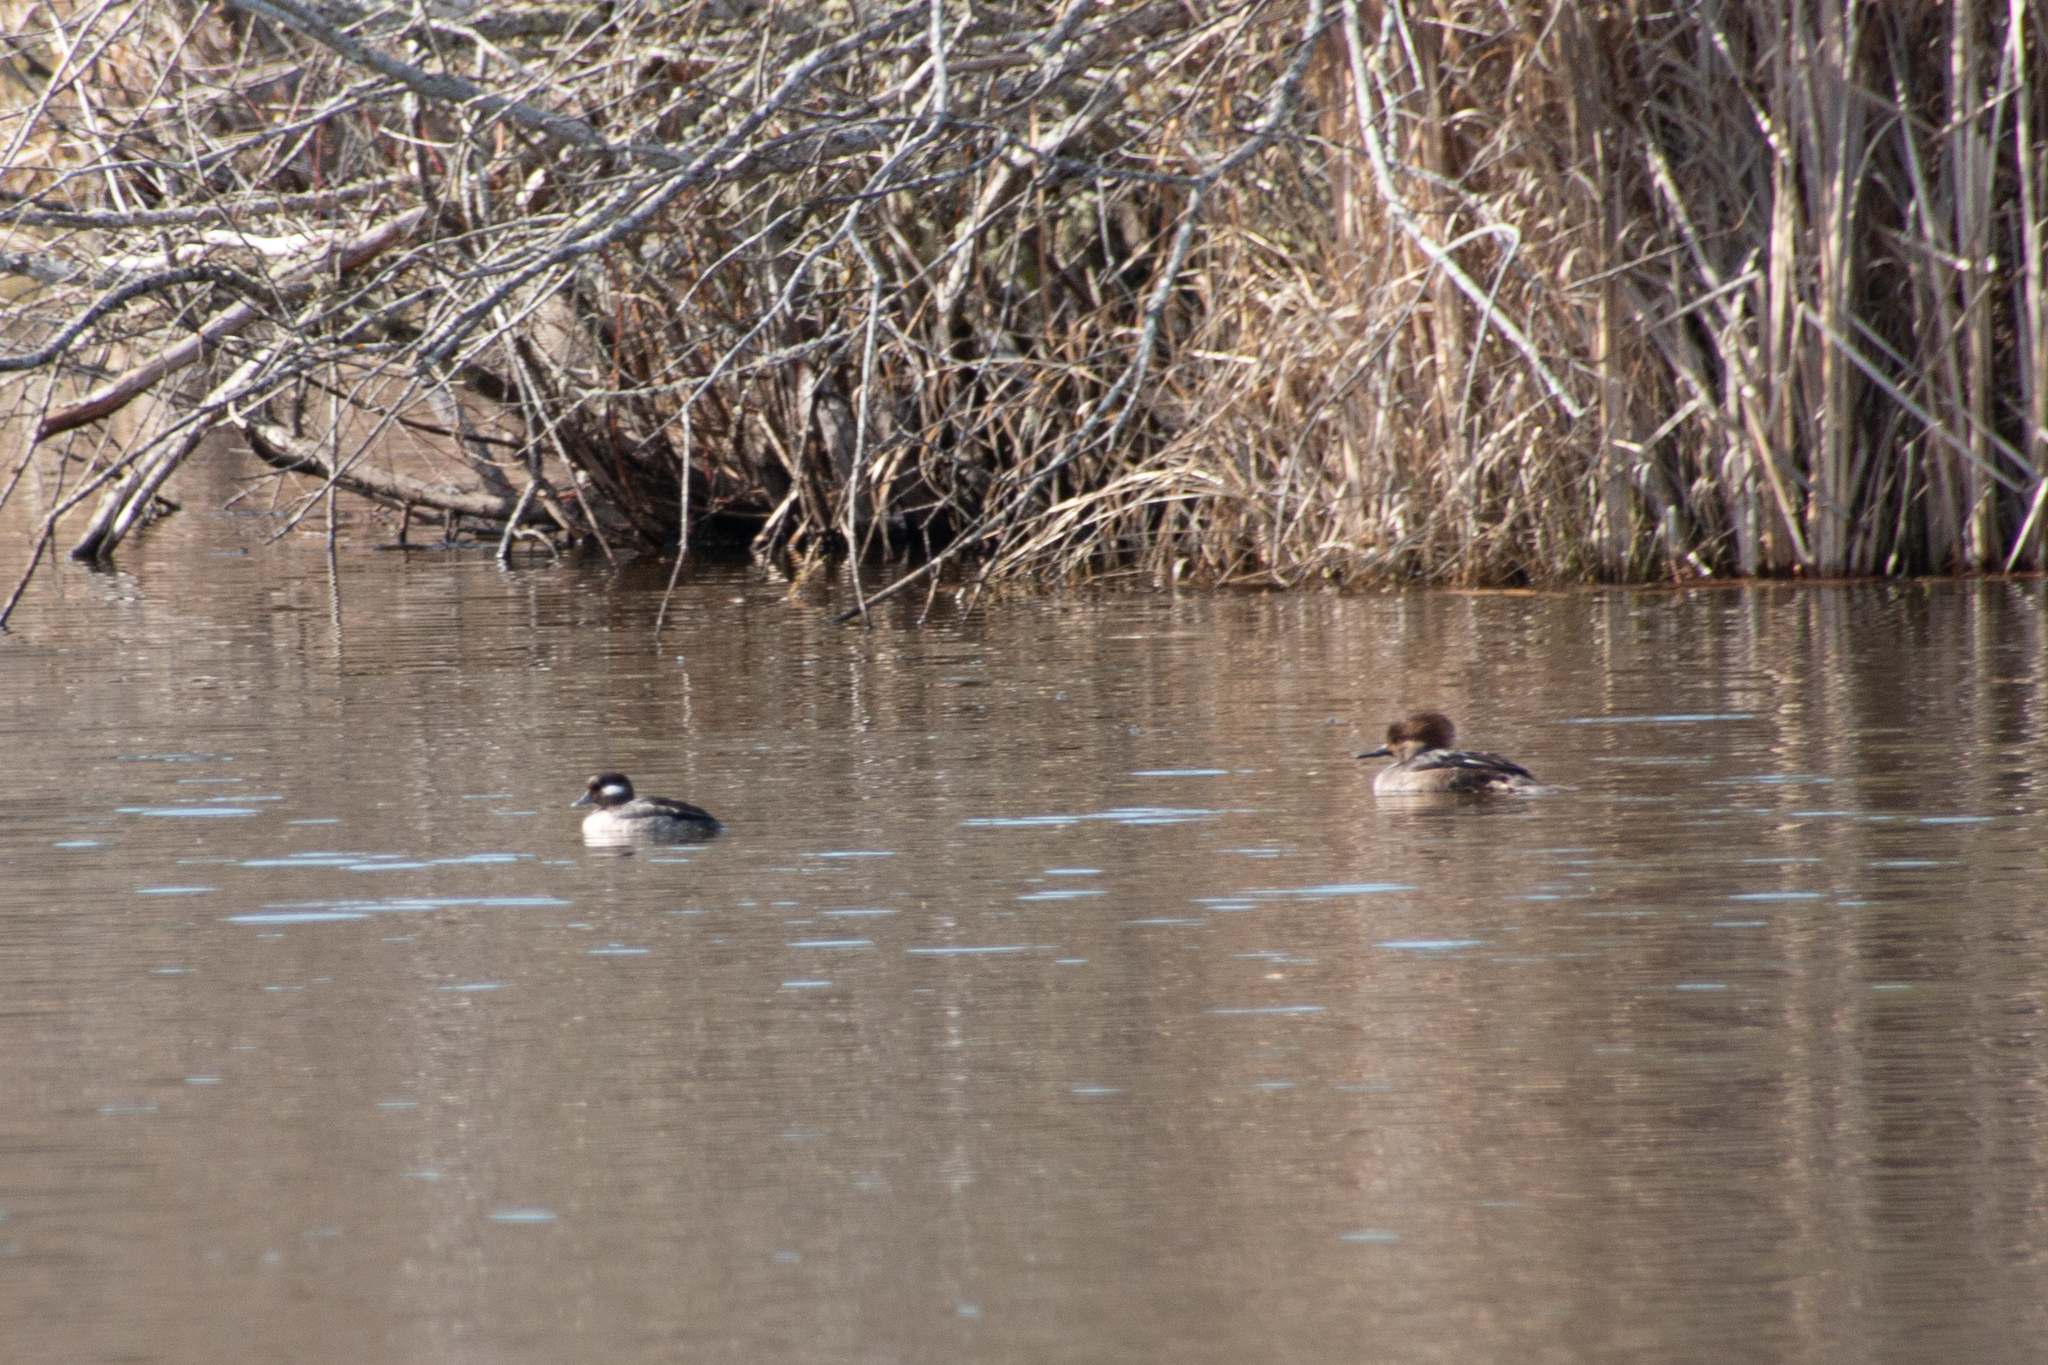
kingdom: Animalia
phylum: Chordata
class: Aves
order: Anseriformes
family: Anatidae
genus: Bucephala
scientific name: Bucephala albeola
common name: Bufflehead
